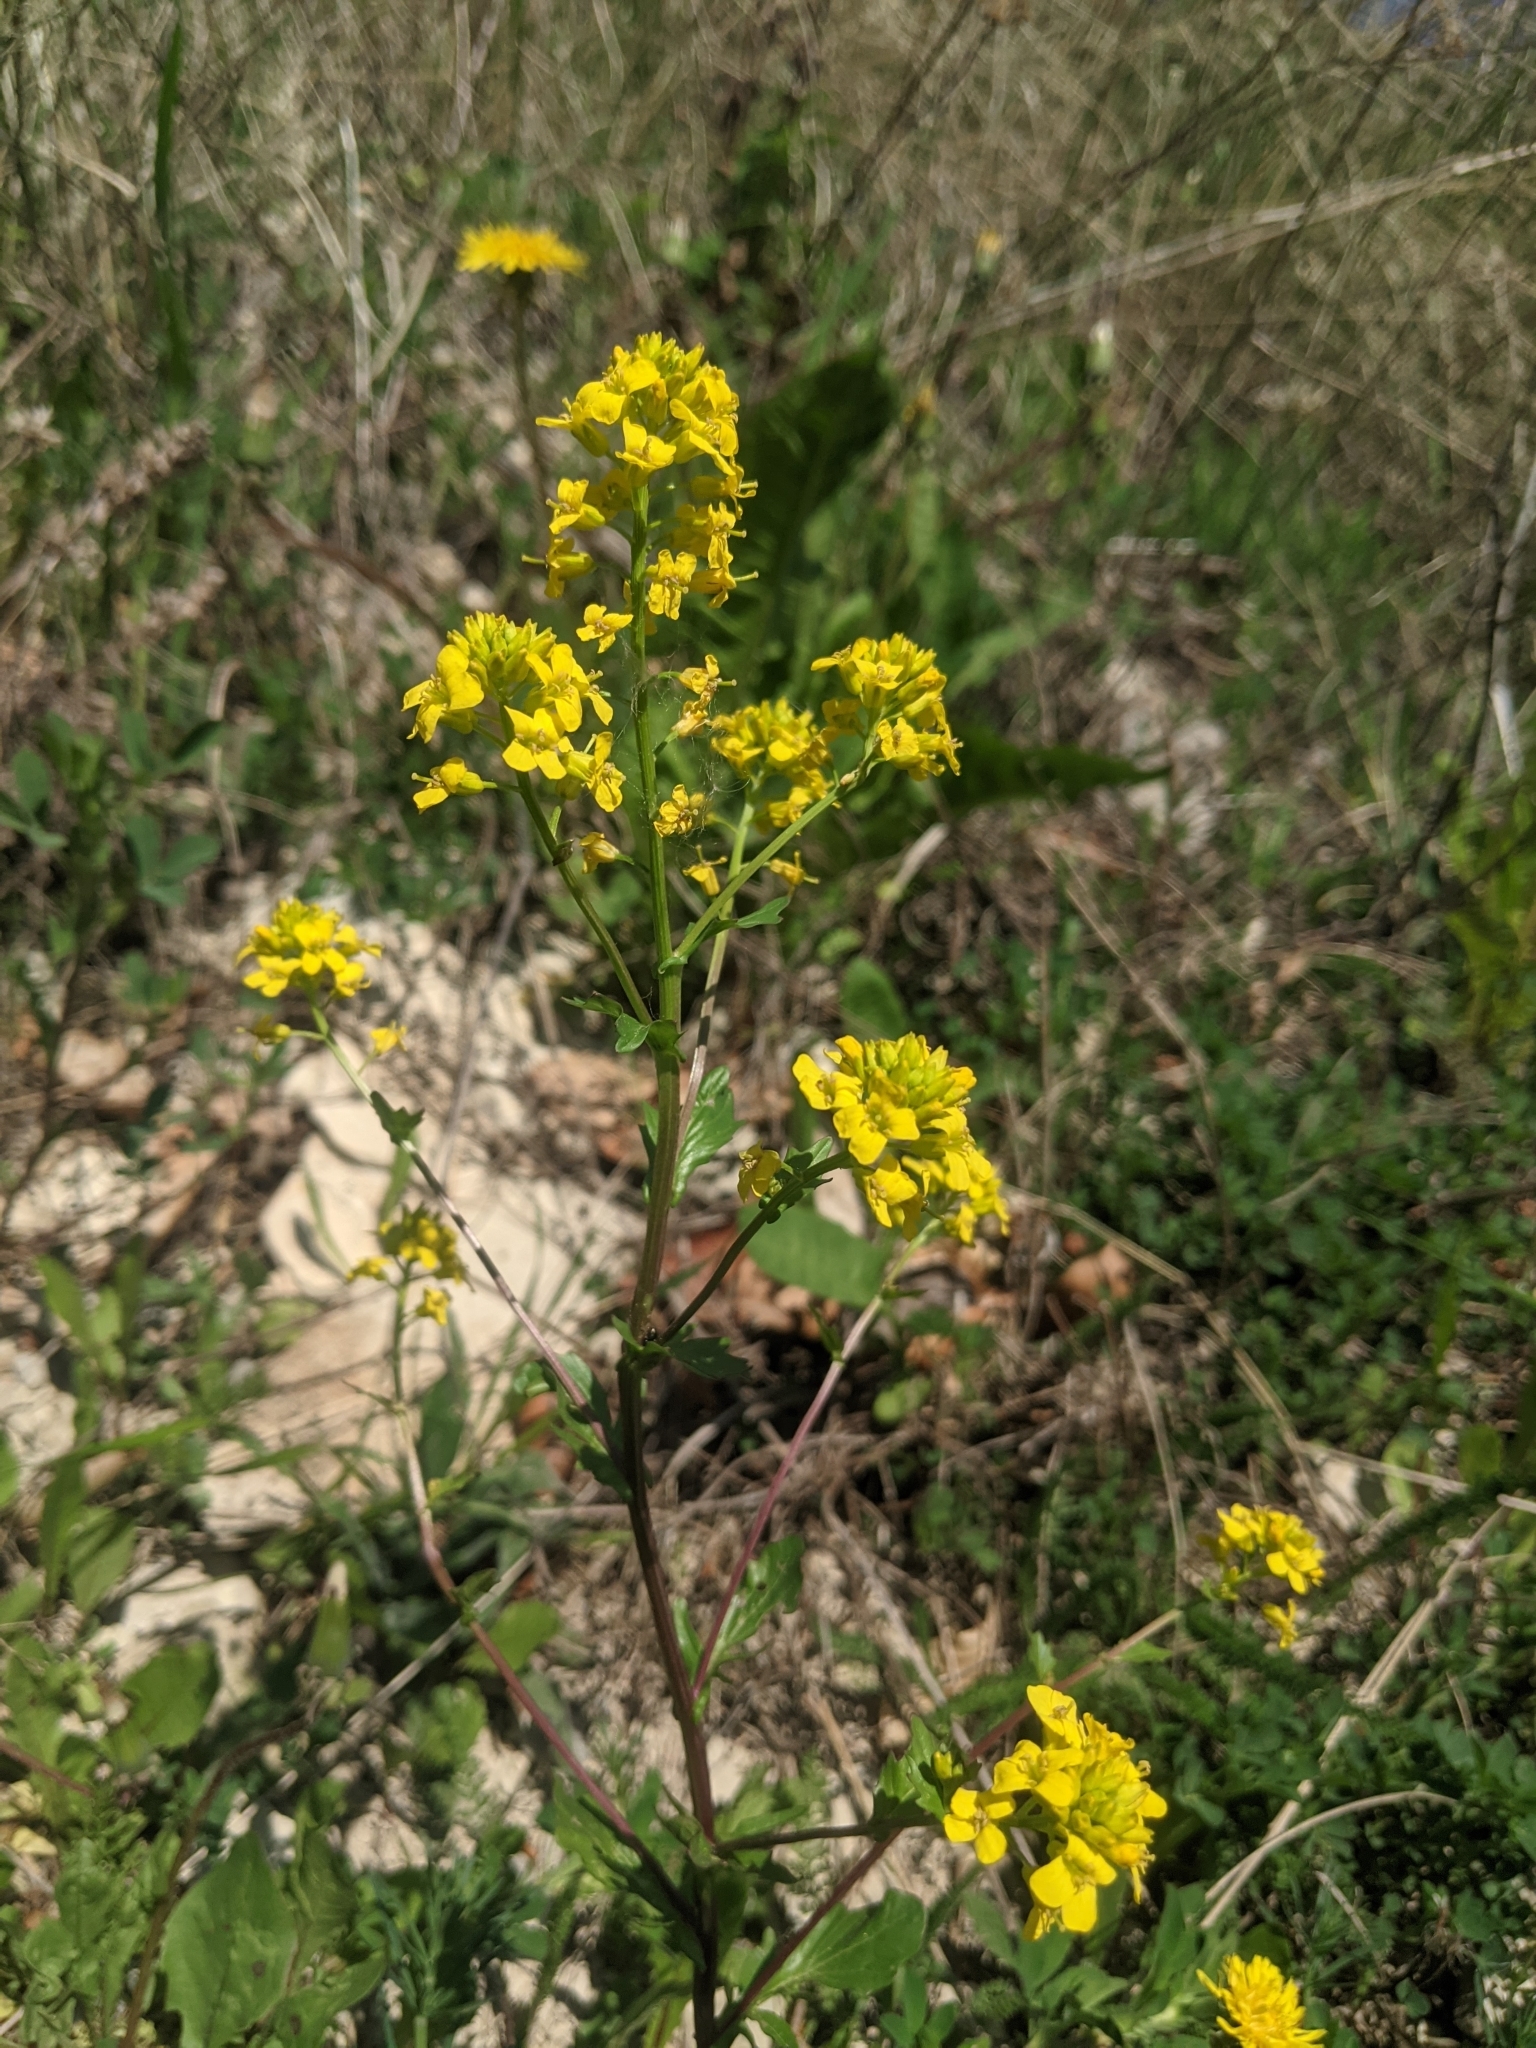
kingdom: Plantae
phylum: Tracheophyta
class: Magnoliopsida
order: Brassicales
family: Brassicaceae
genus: Barbarea
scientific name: Barbarea vulgaris
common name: Cressy-greens
